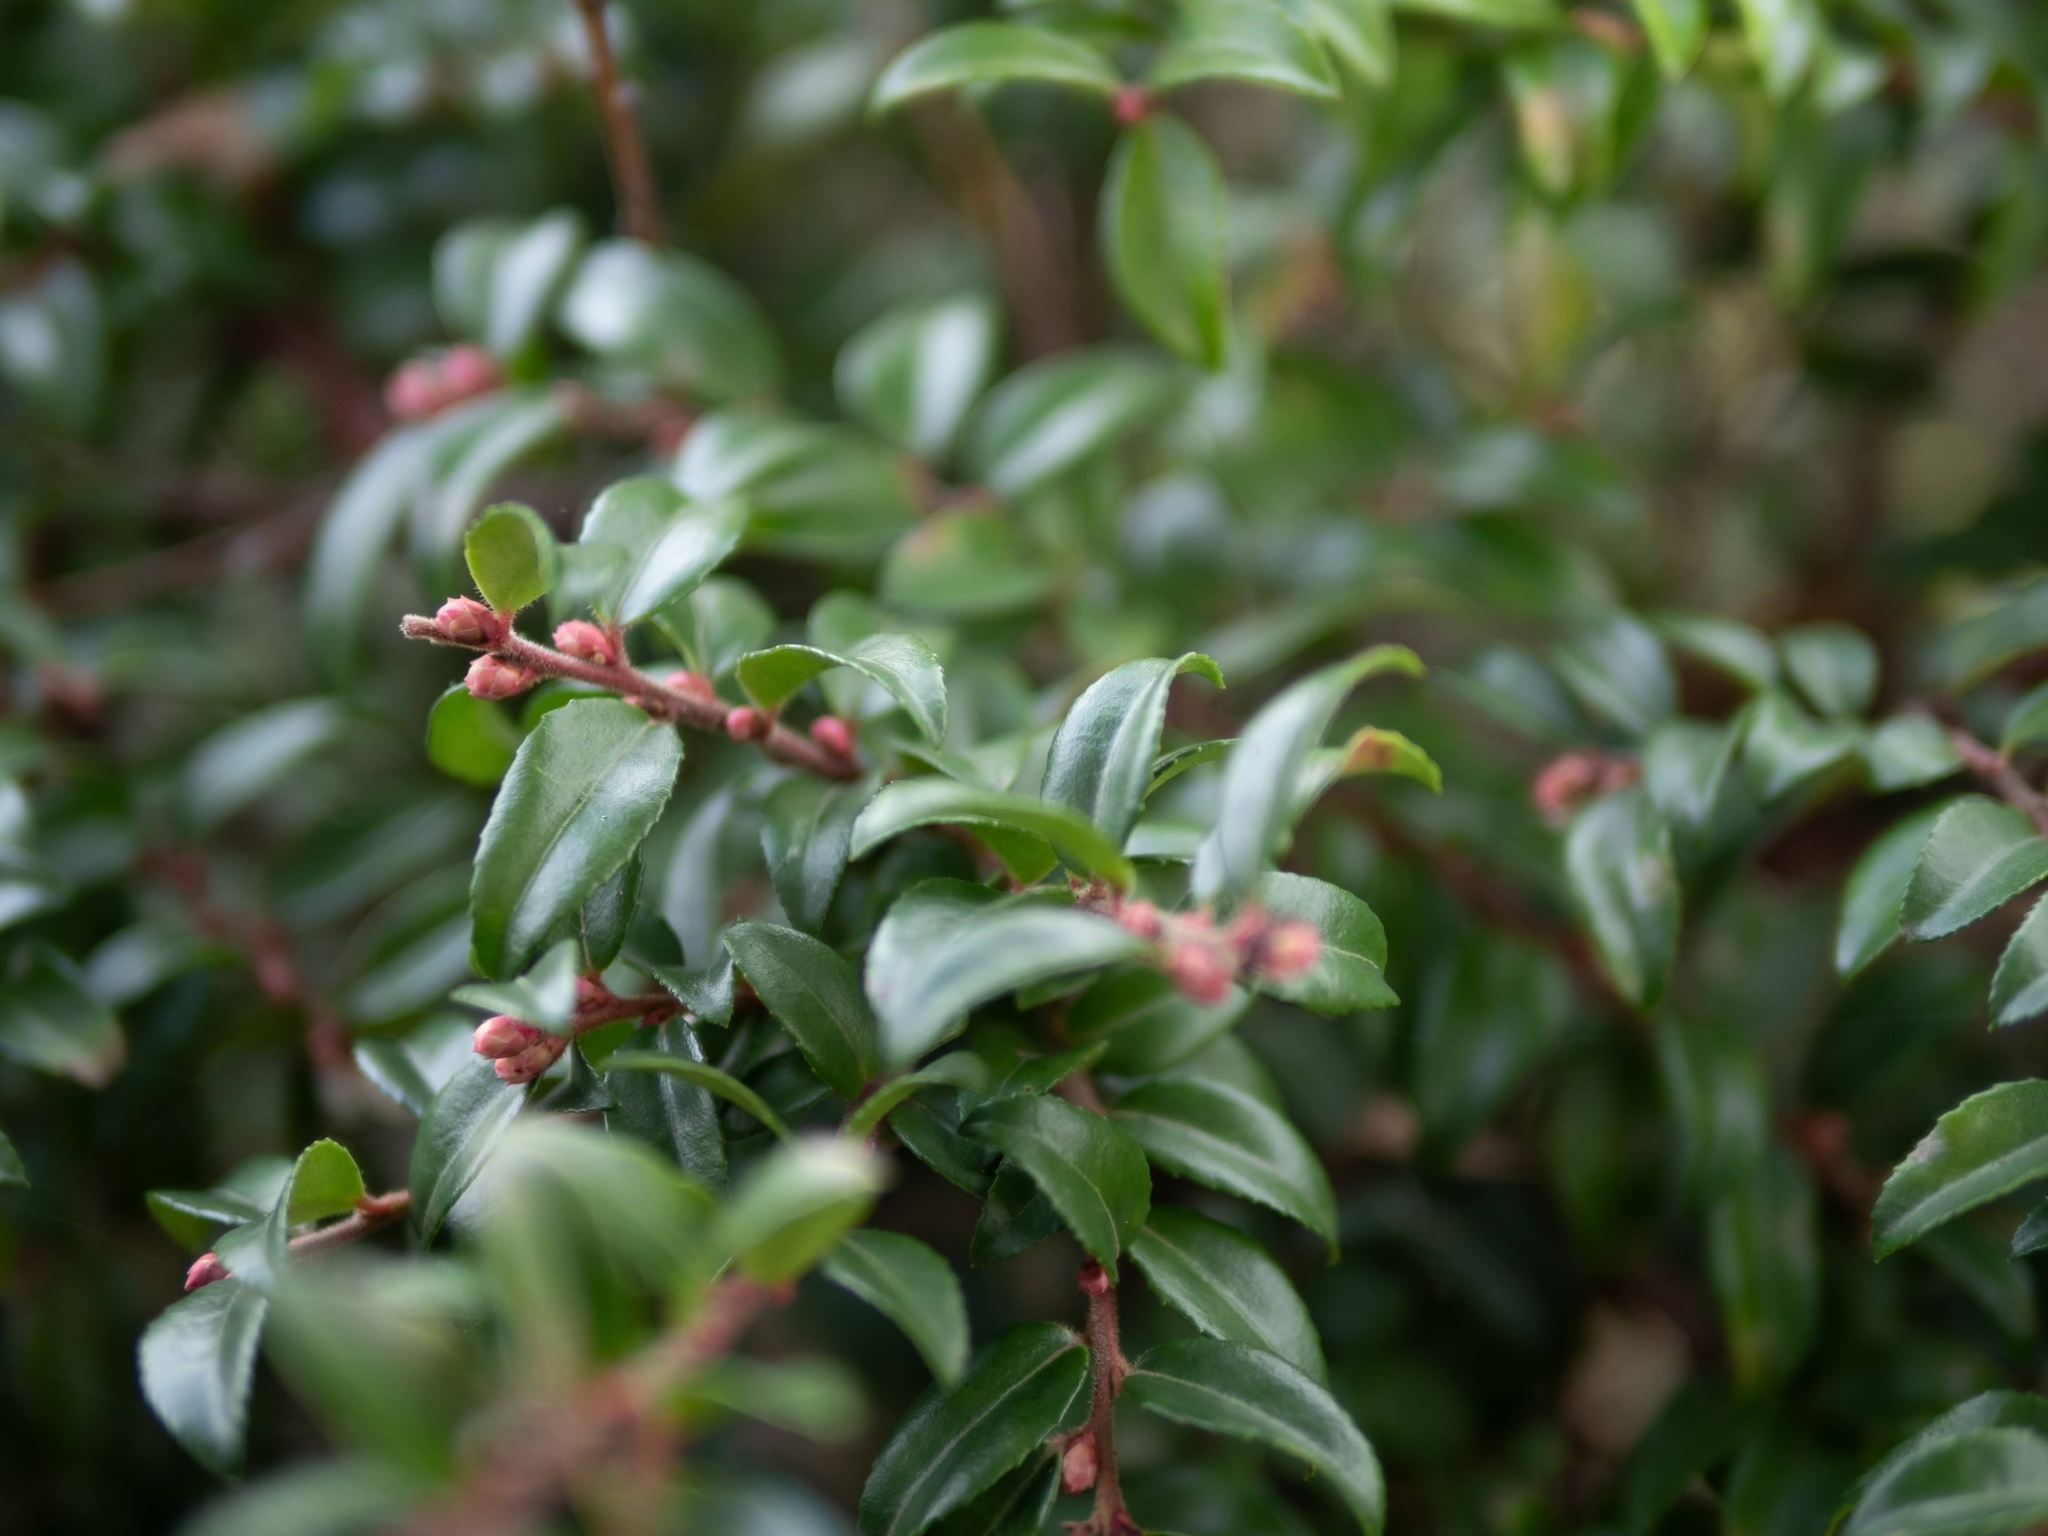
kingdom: Plantae
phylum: Tracheophyta
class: Magnoliopsida
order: Ericales
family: Ericaceae
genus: Vaccinium
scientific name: Vaccinium ovatum
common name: California-huckleberry
